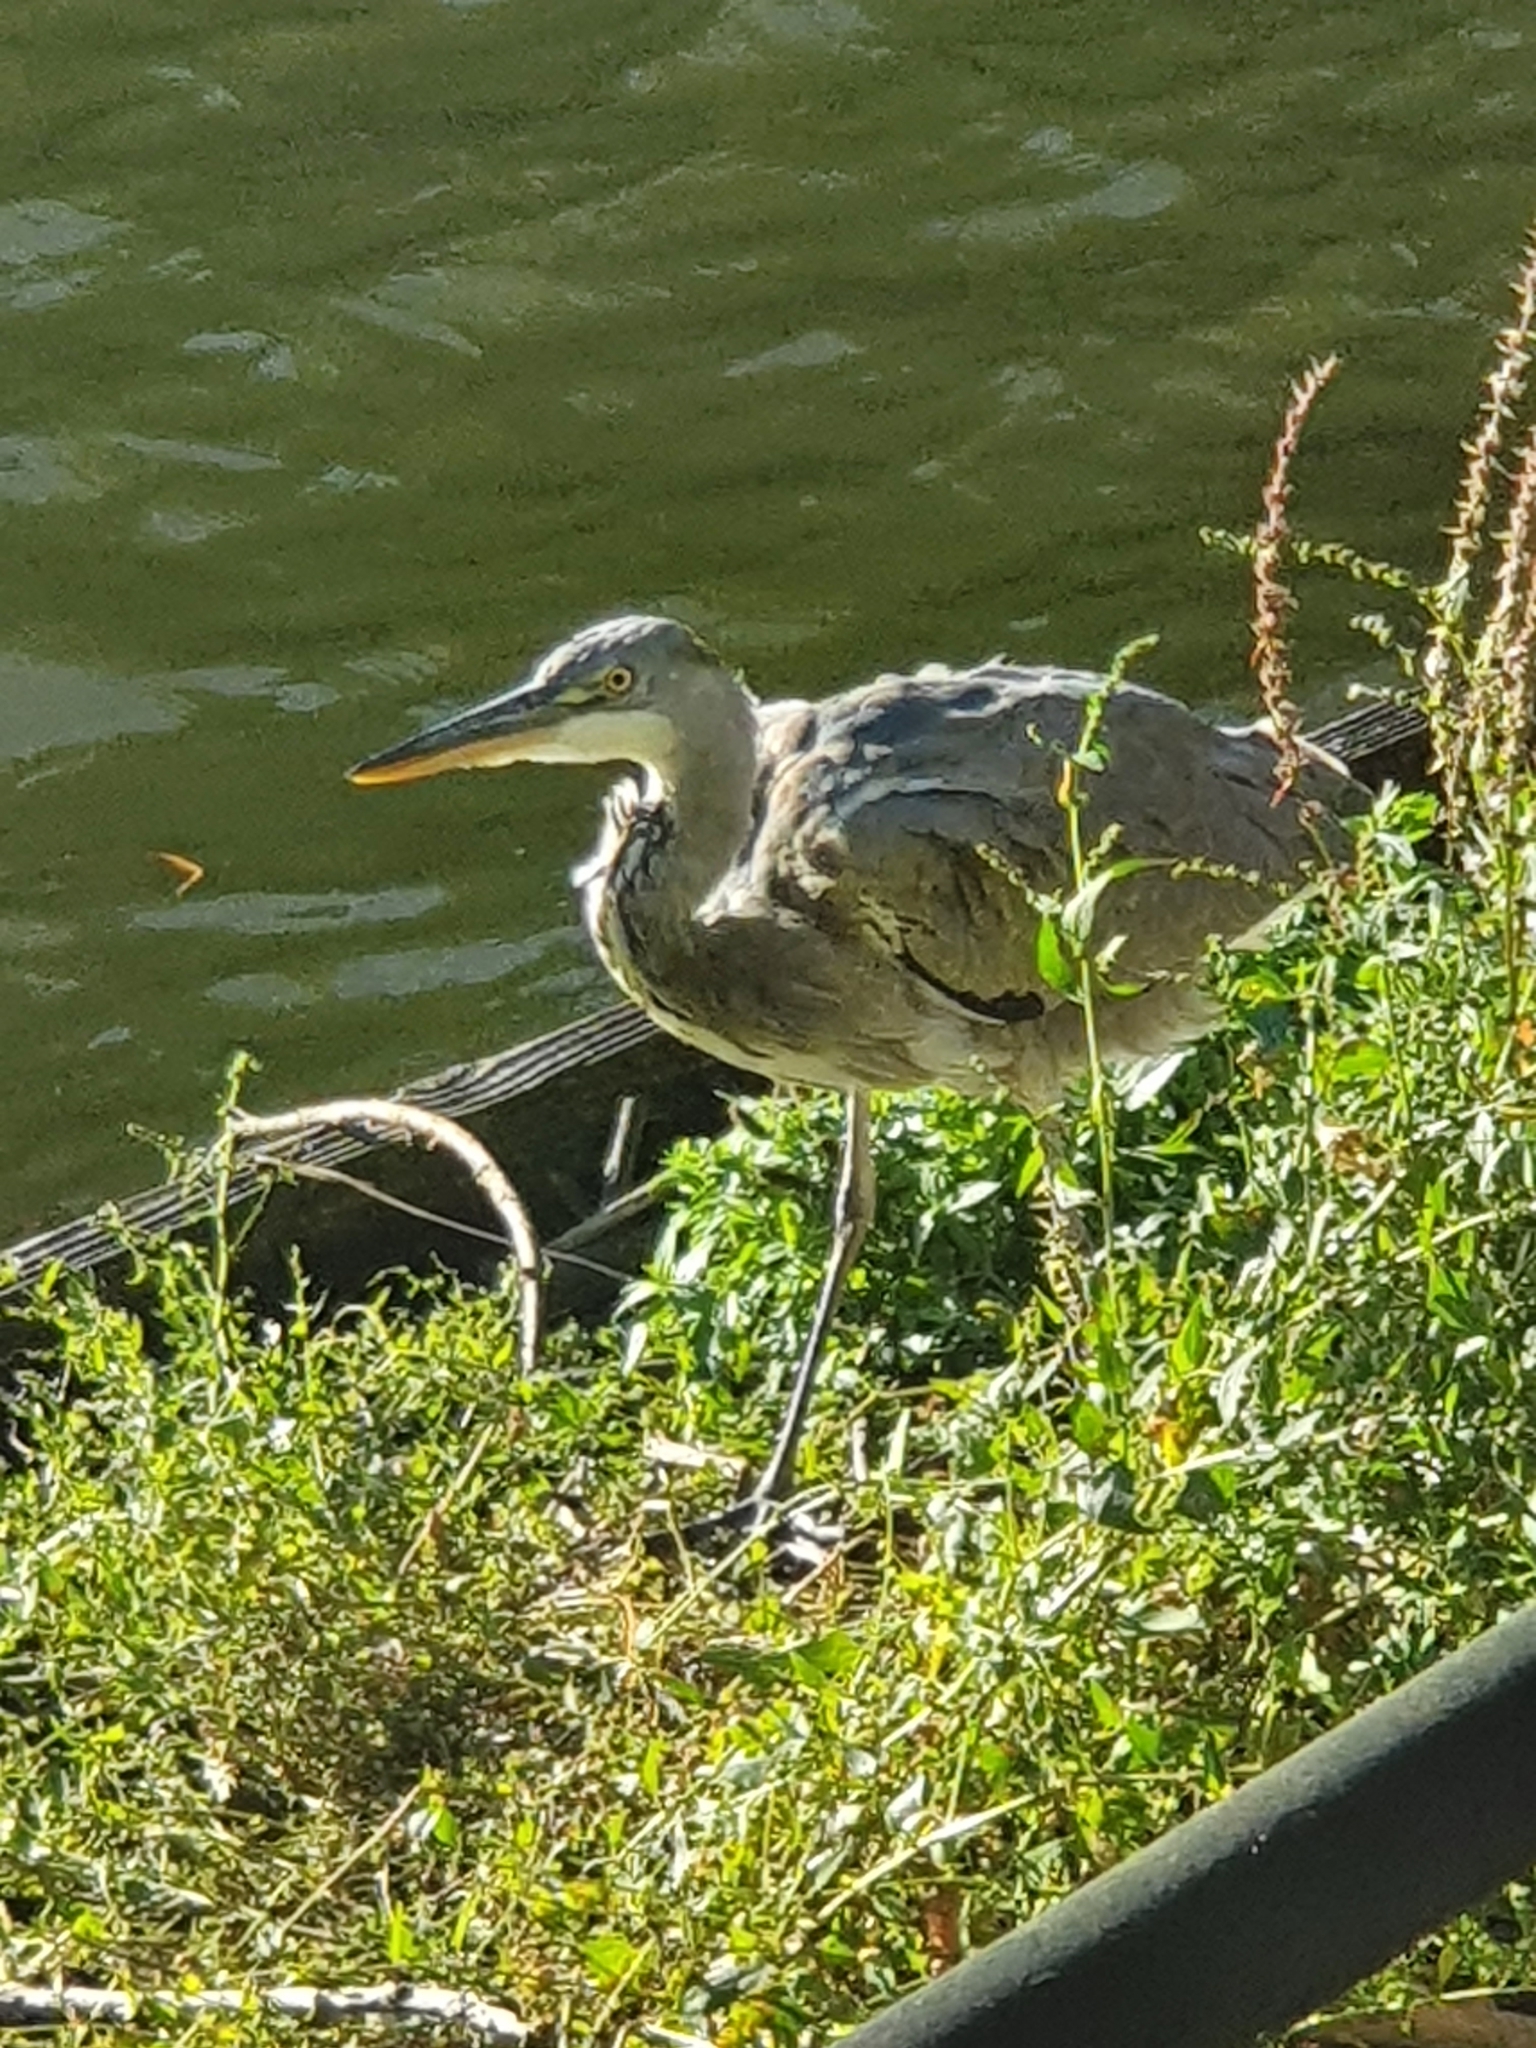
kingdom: Animalia
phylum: Chordata
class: Aves
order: Pelecaniformes
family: Ardeidae
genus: Ardea
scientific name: Ardea cinerea
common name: Grey heron
